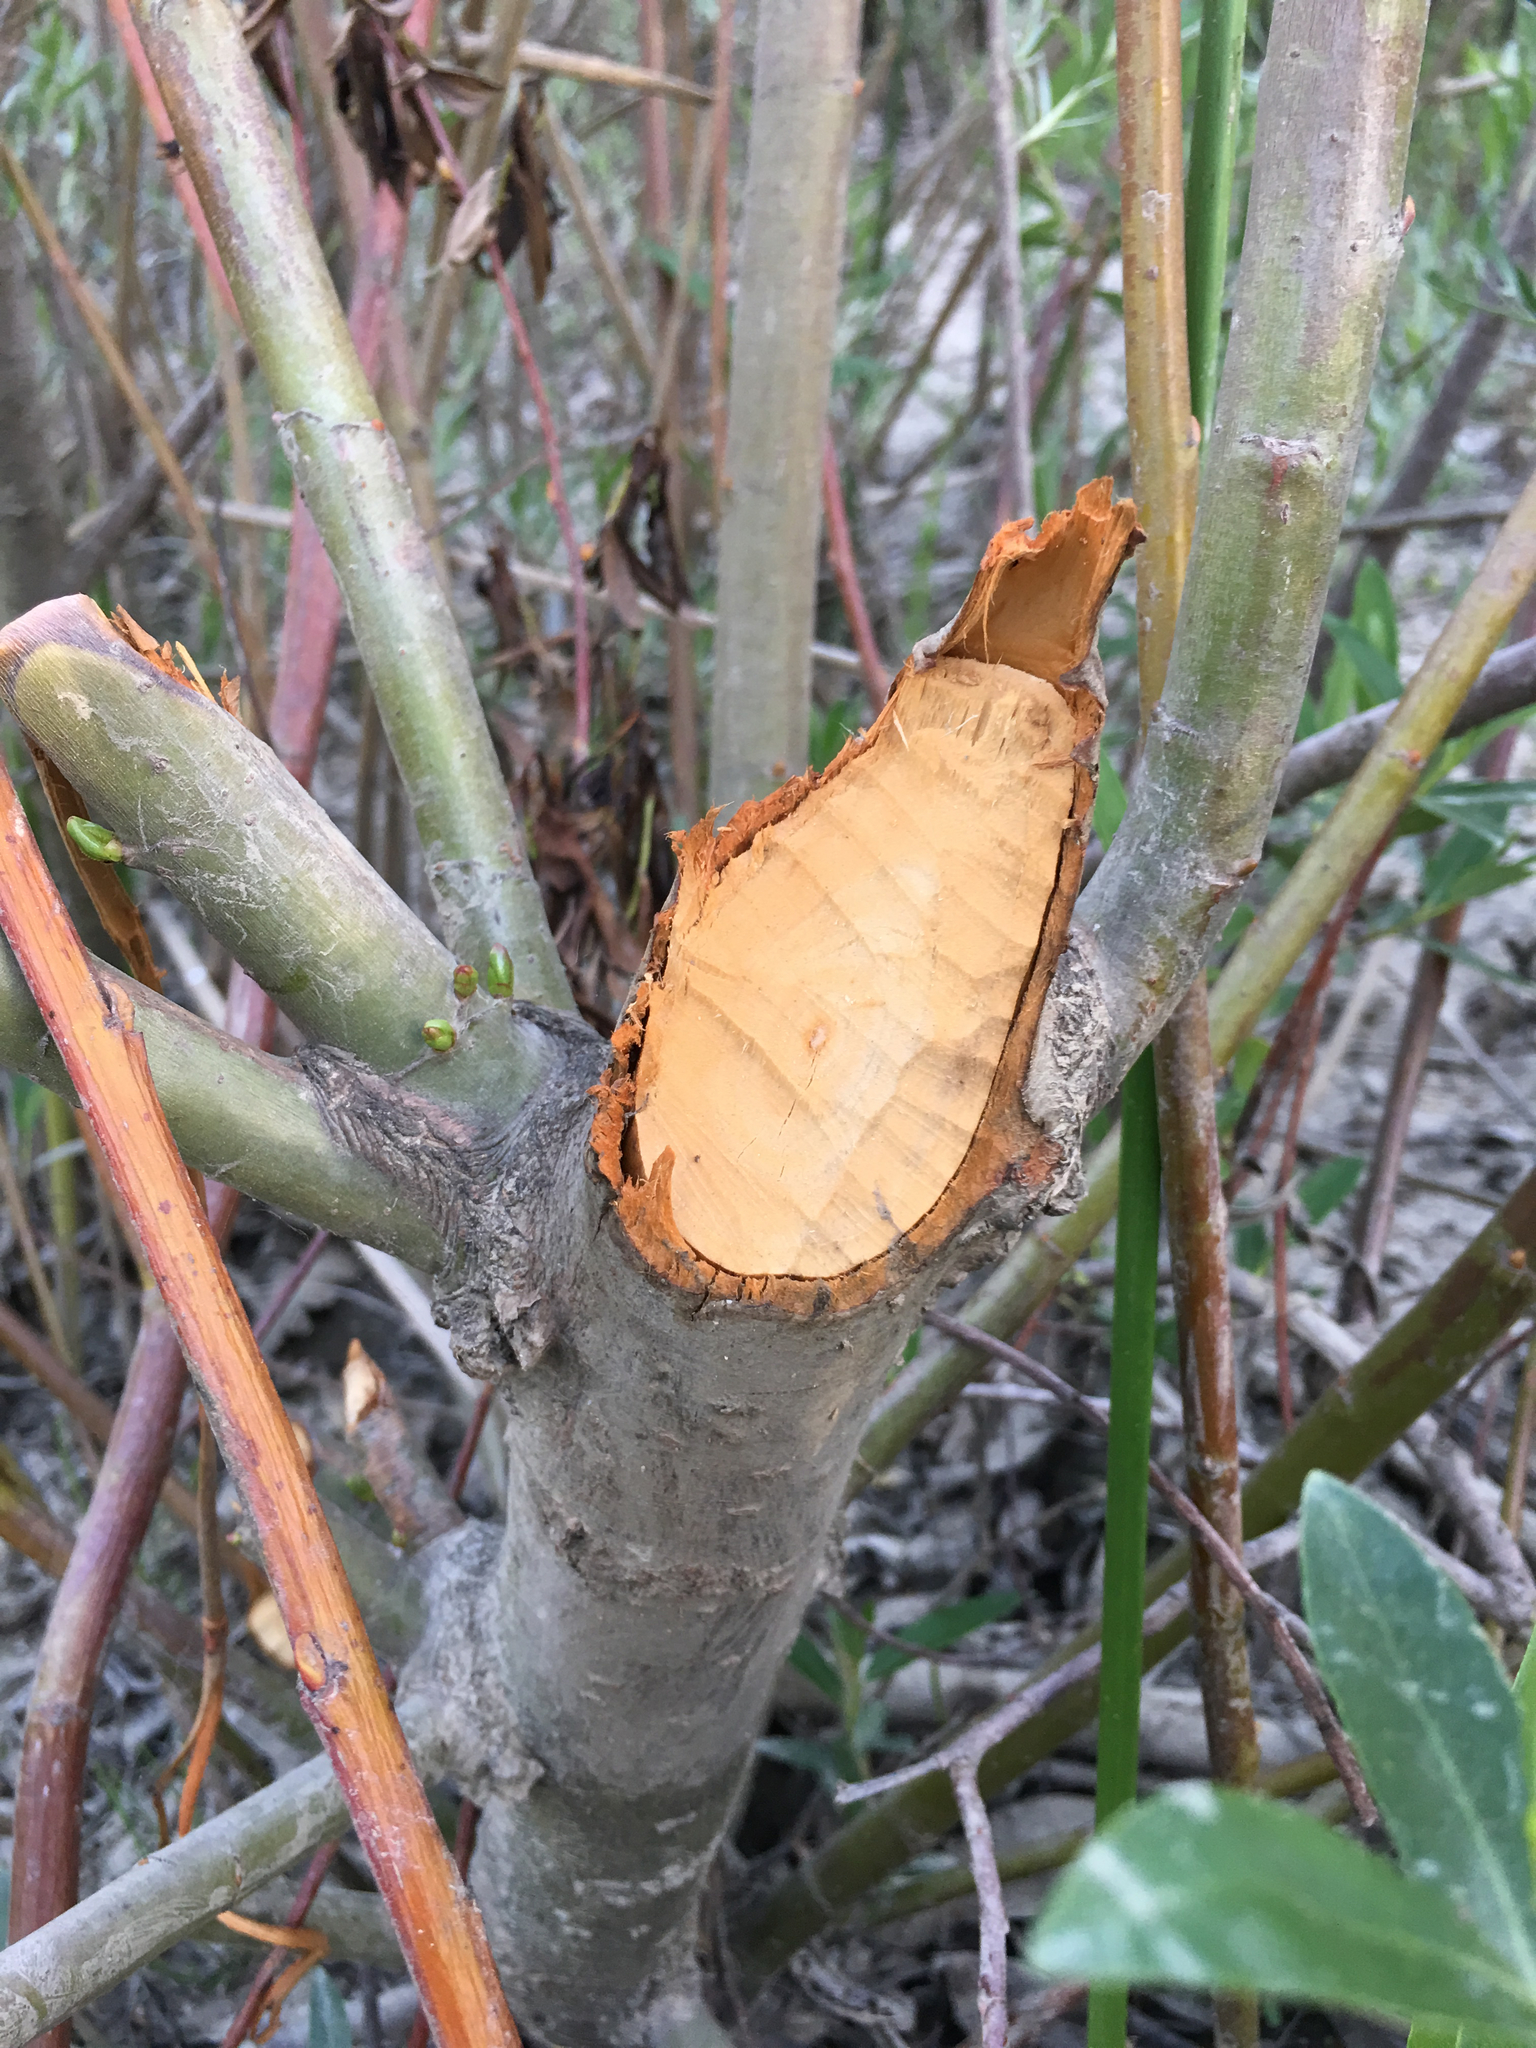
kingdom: Animalia
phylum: Chordata
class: Mammalia
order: Rodentia
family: Castoridae
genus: Castor
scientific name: Castor canadensis
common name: American beaver
